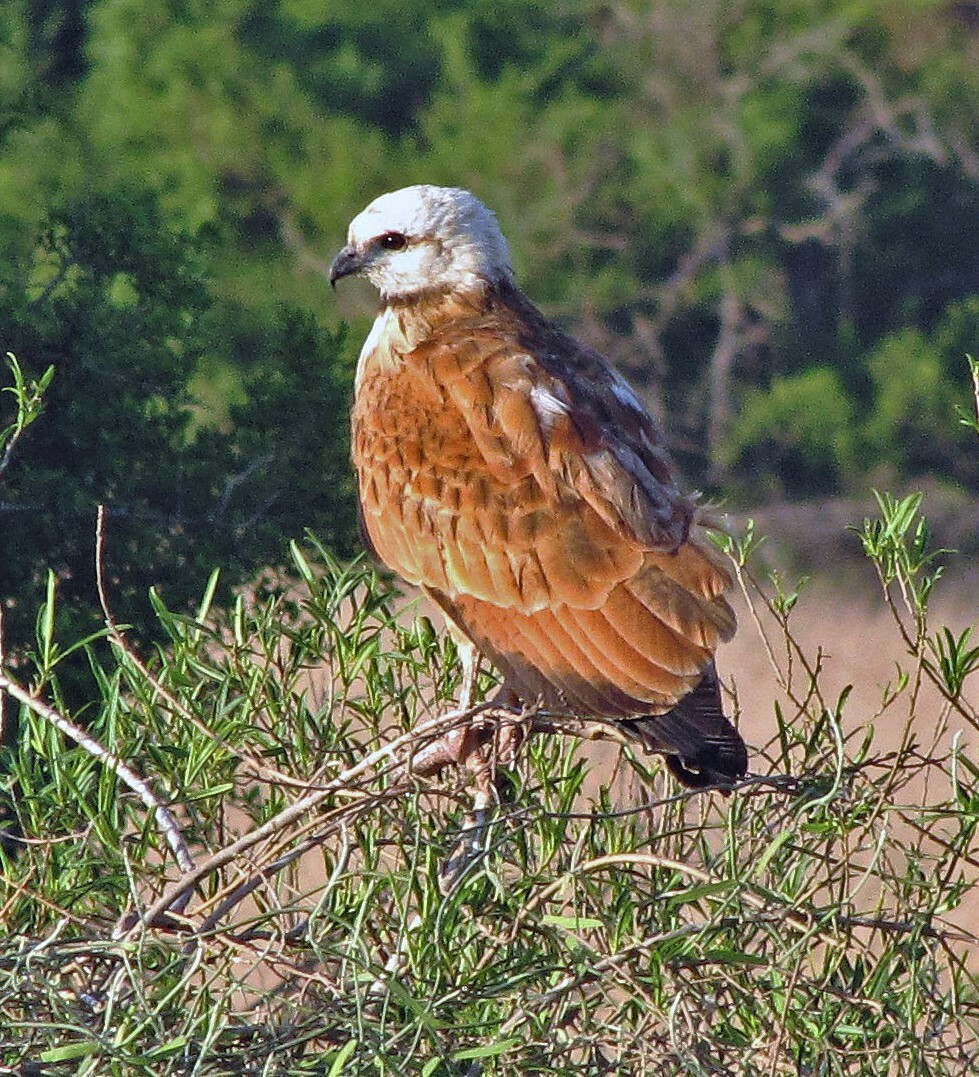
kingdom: Animalia
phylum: Chordata
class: Aves
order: Accipitriformes
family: Accipitridae
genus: Busarellus
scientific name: Busarellus nigricollis
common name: Black-collared hawk
